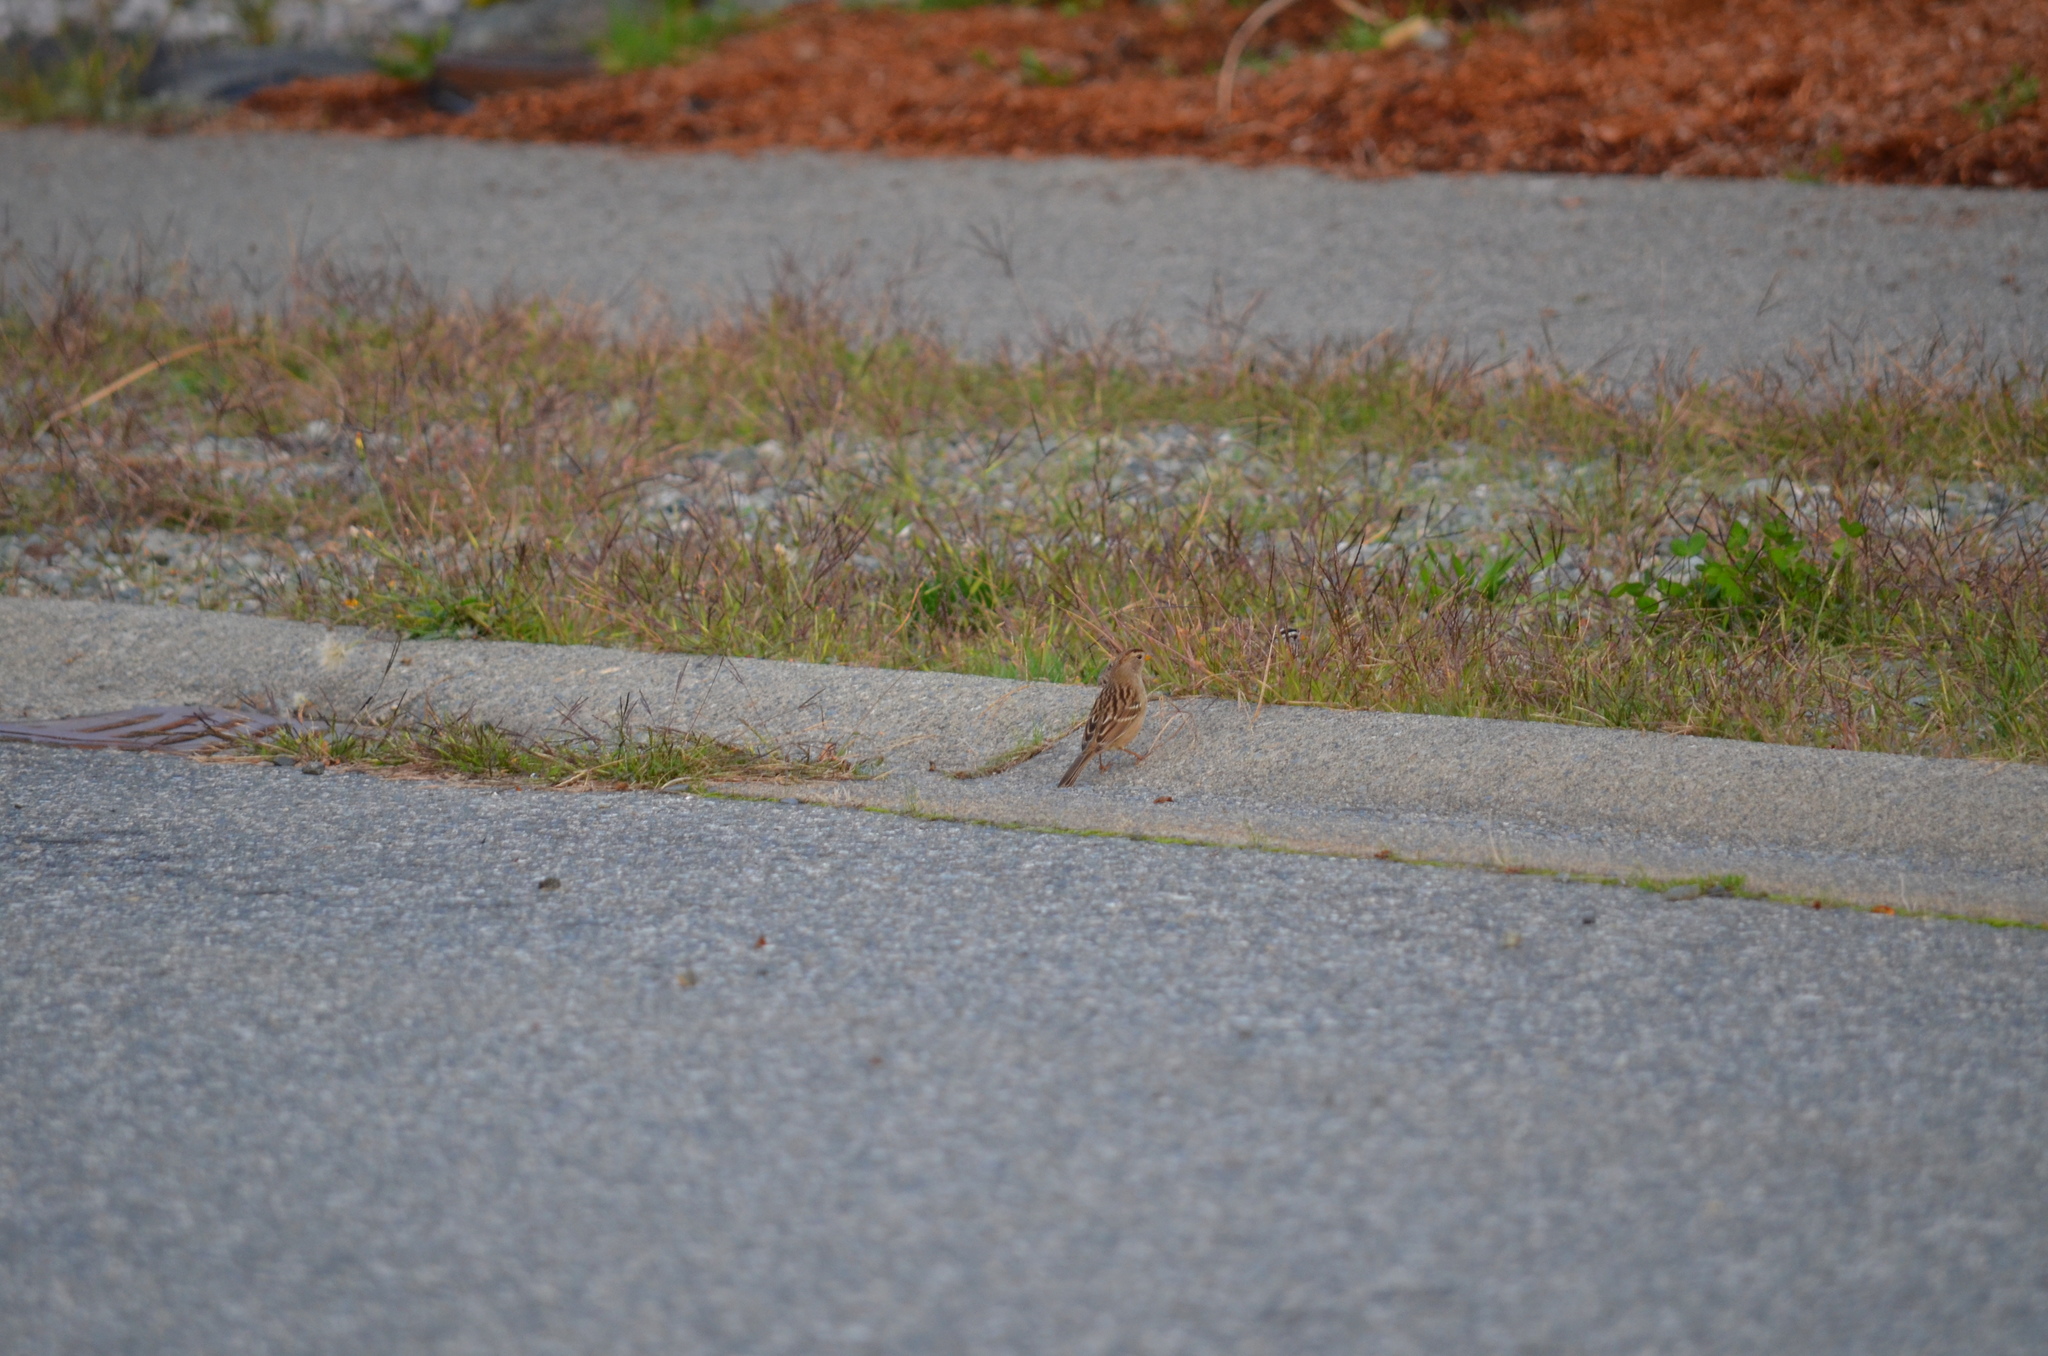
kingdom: Animalia
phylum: Chordata
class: Aves
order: Passeriformes
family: Passerellidae
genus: Zonotrichia
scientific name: Zonotrichia leucophrys
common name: White-crowned sparrow
